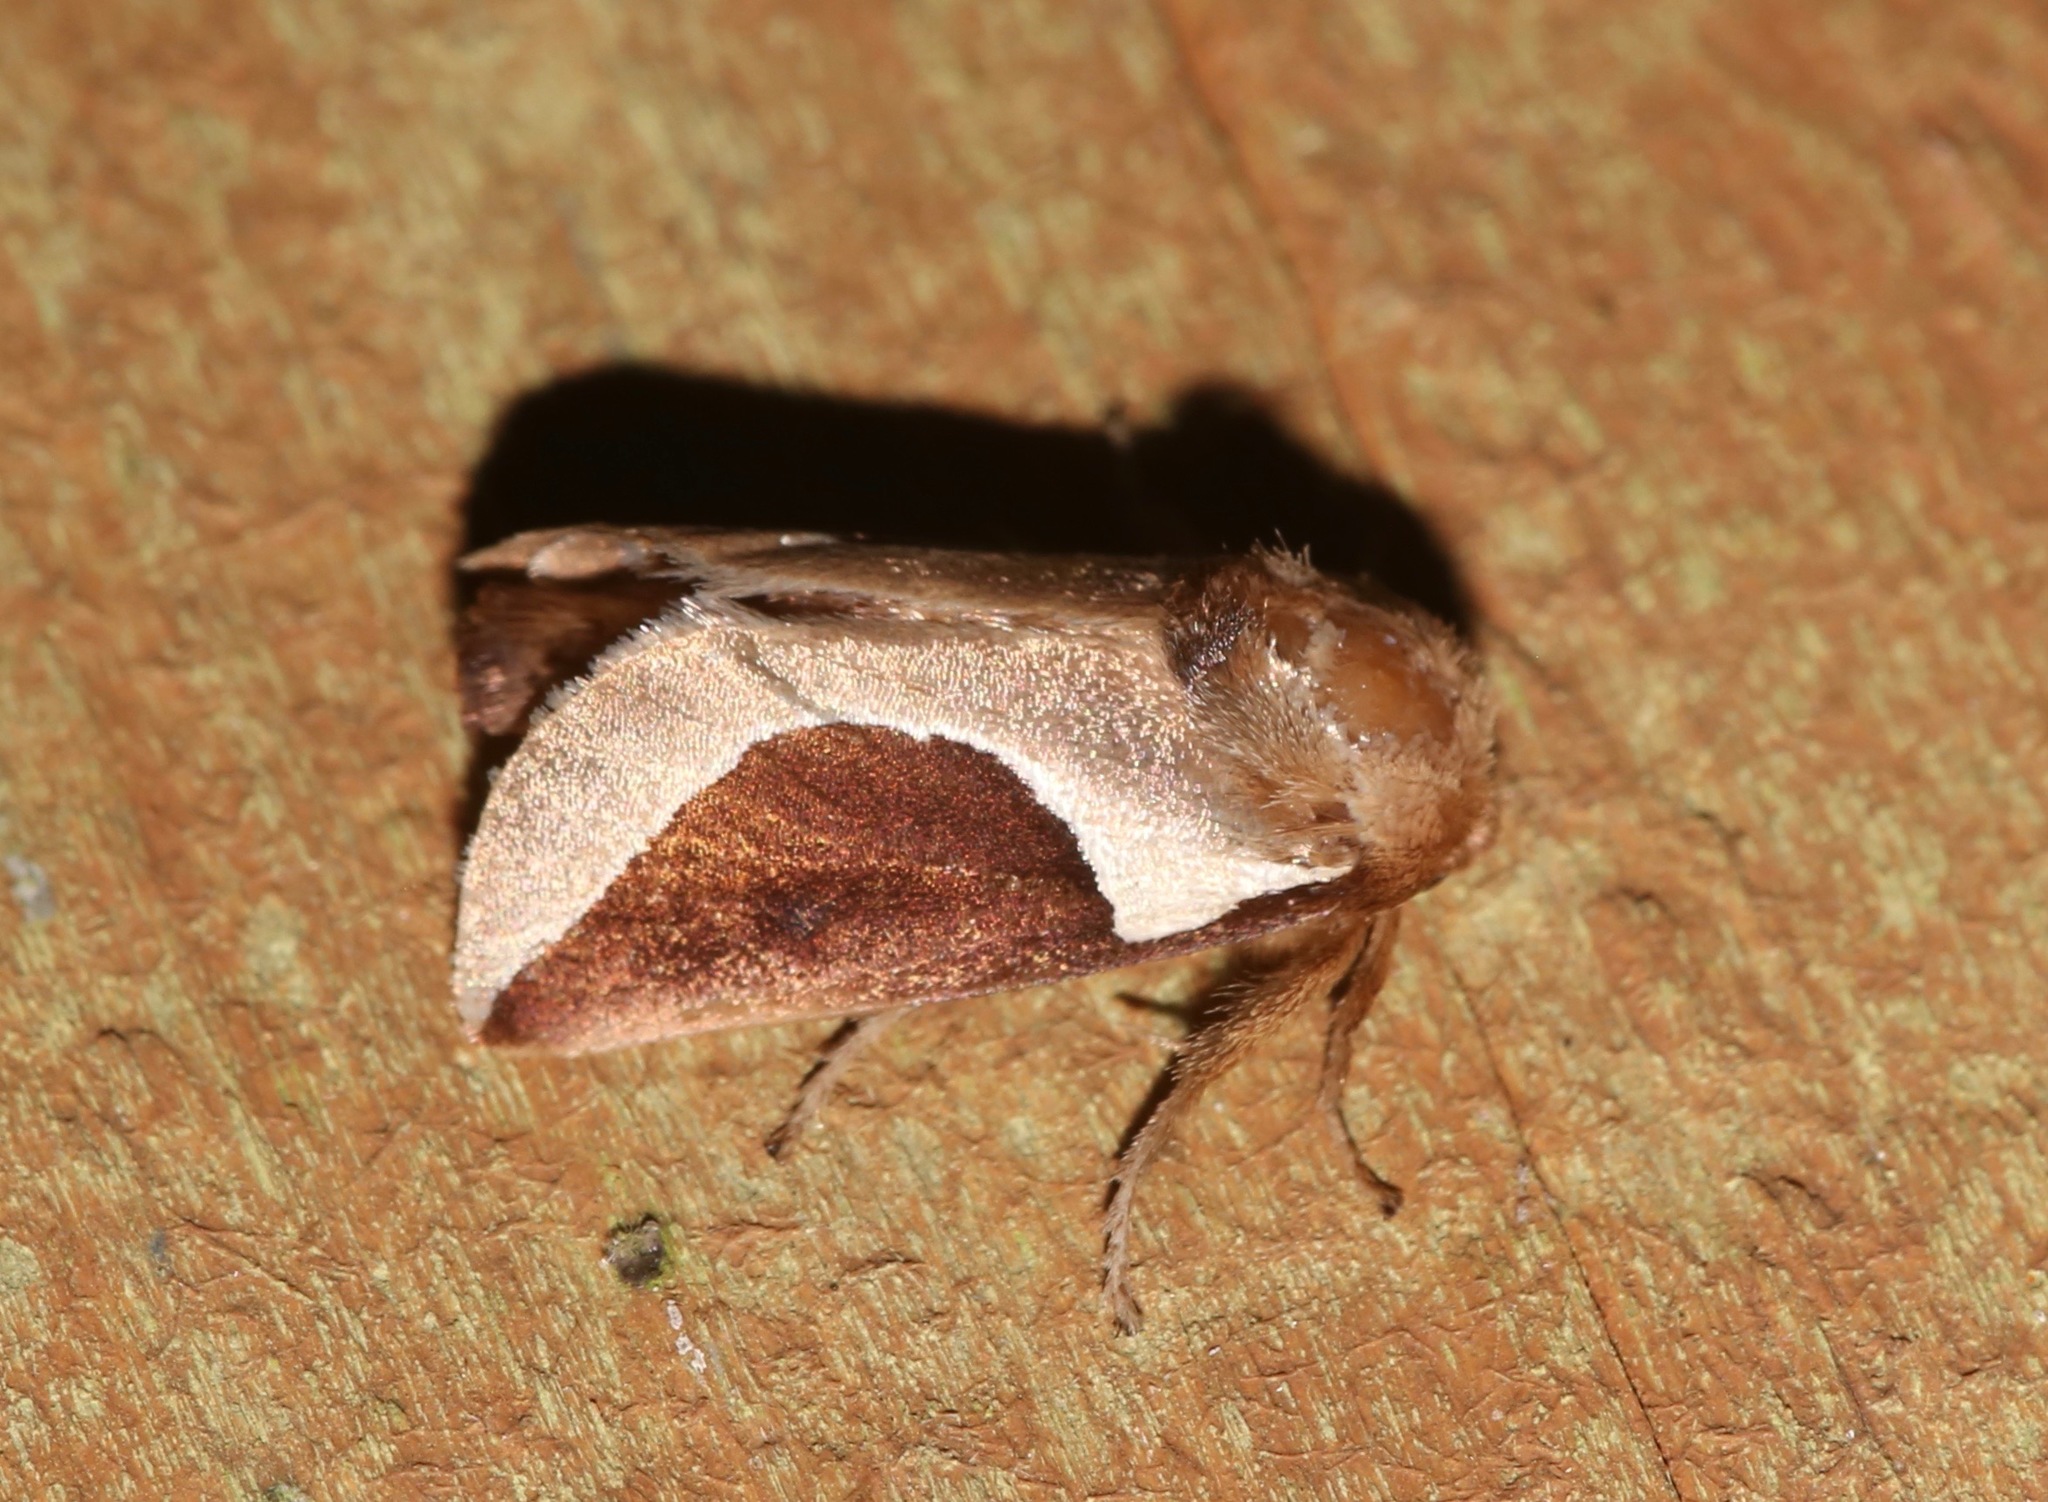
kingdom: Animalia
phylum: Arthropoda
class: Insecta
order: Lepidoptera
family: Limacodidae
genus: Prolimacodes
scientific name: Prolimacodes badia
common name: Skiff moth
